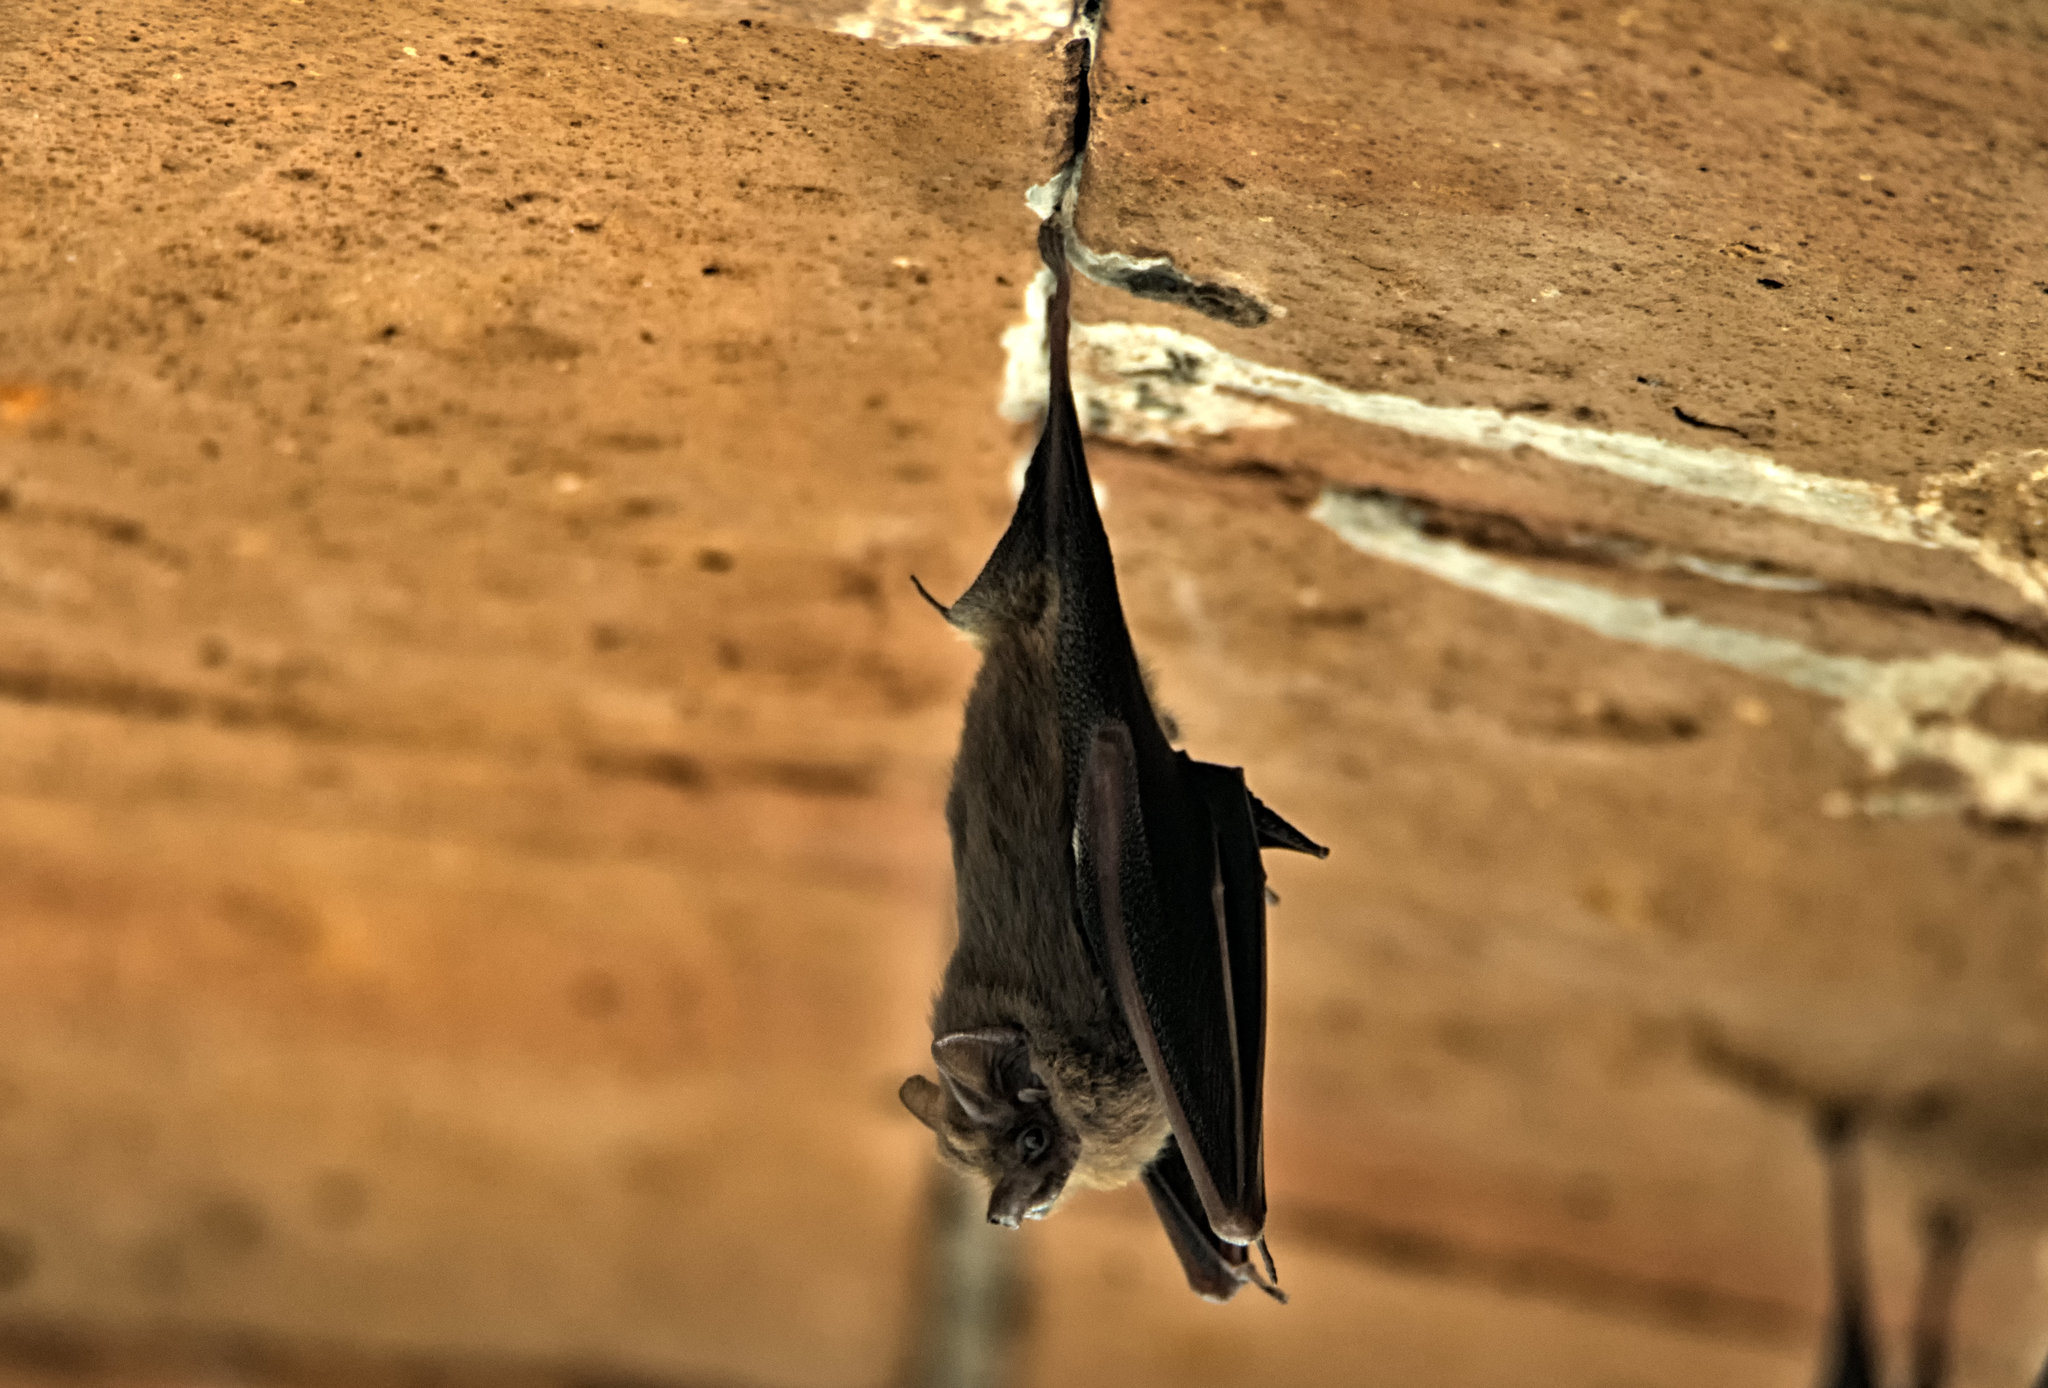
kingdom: Animalia
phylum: Chordata
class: Mammalia
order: Chiroptera
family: Emballonuridae
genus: Balantiopteryx
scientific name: Balantiopteryx plicata
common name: Gray sac-winged bat
